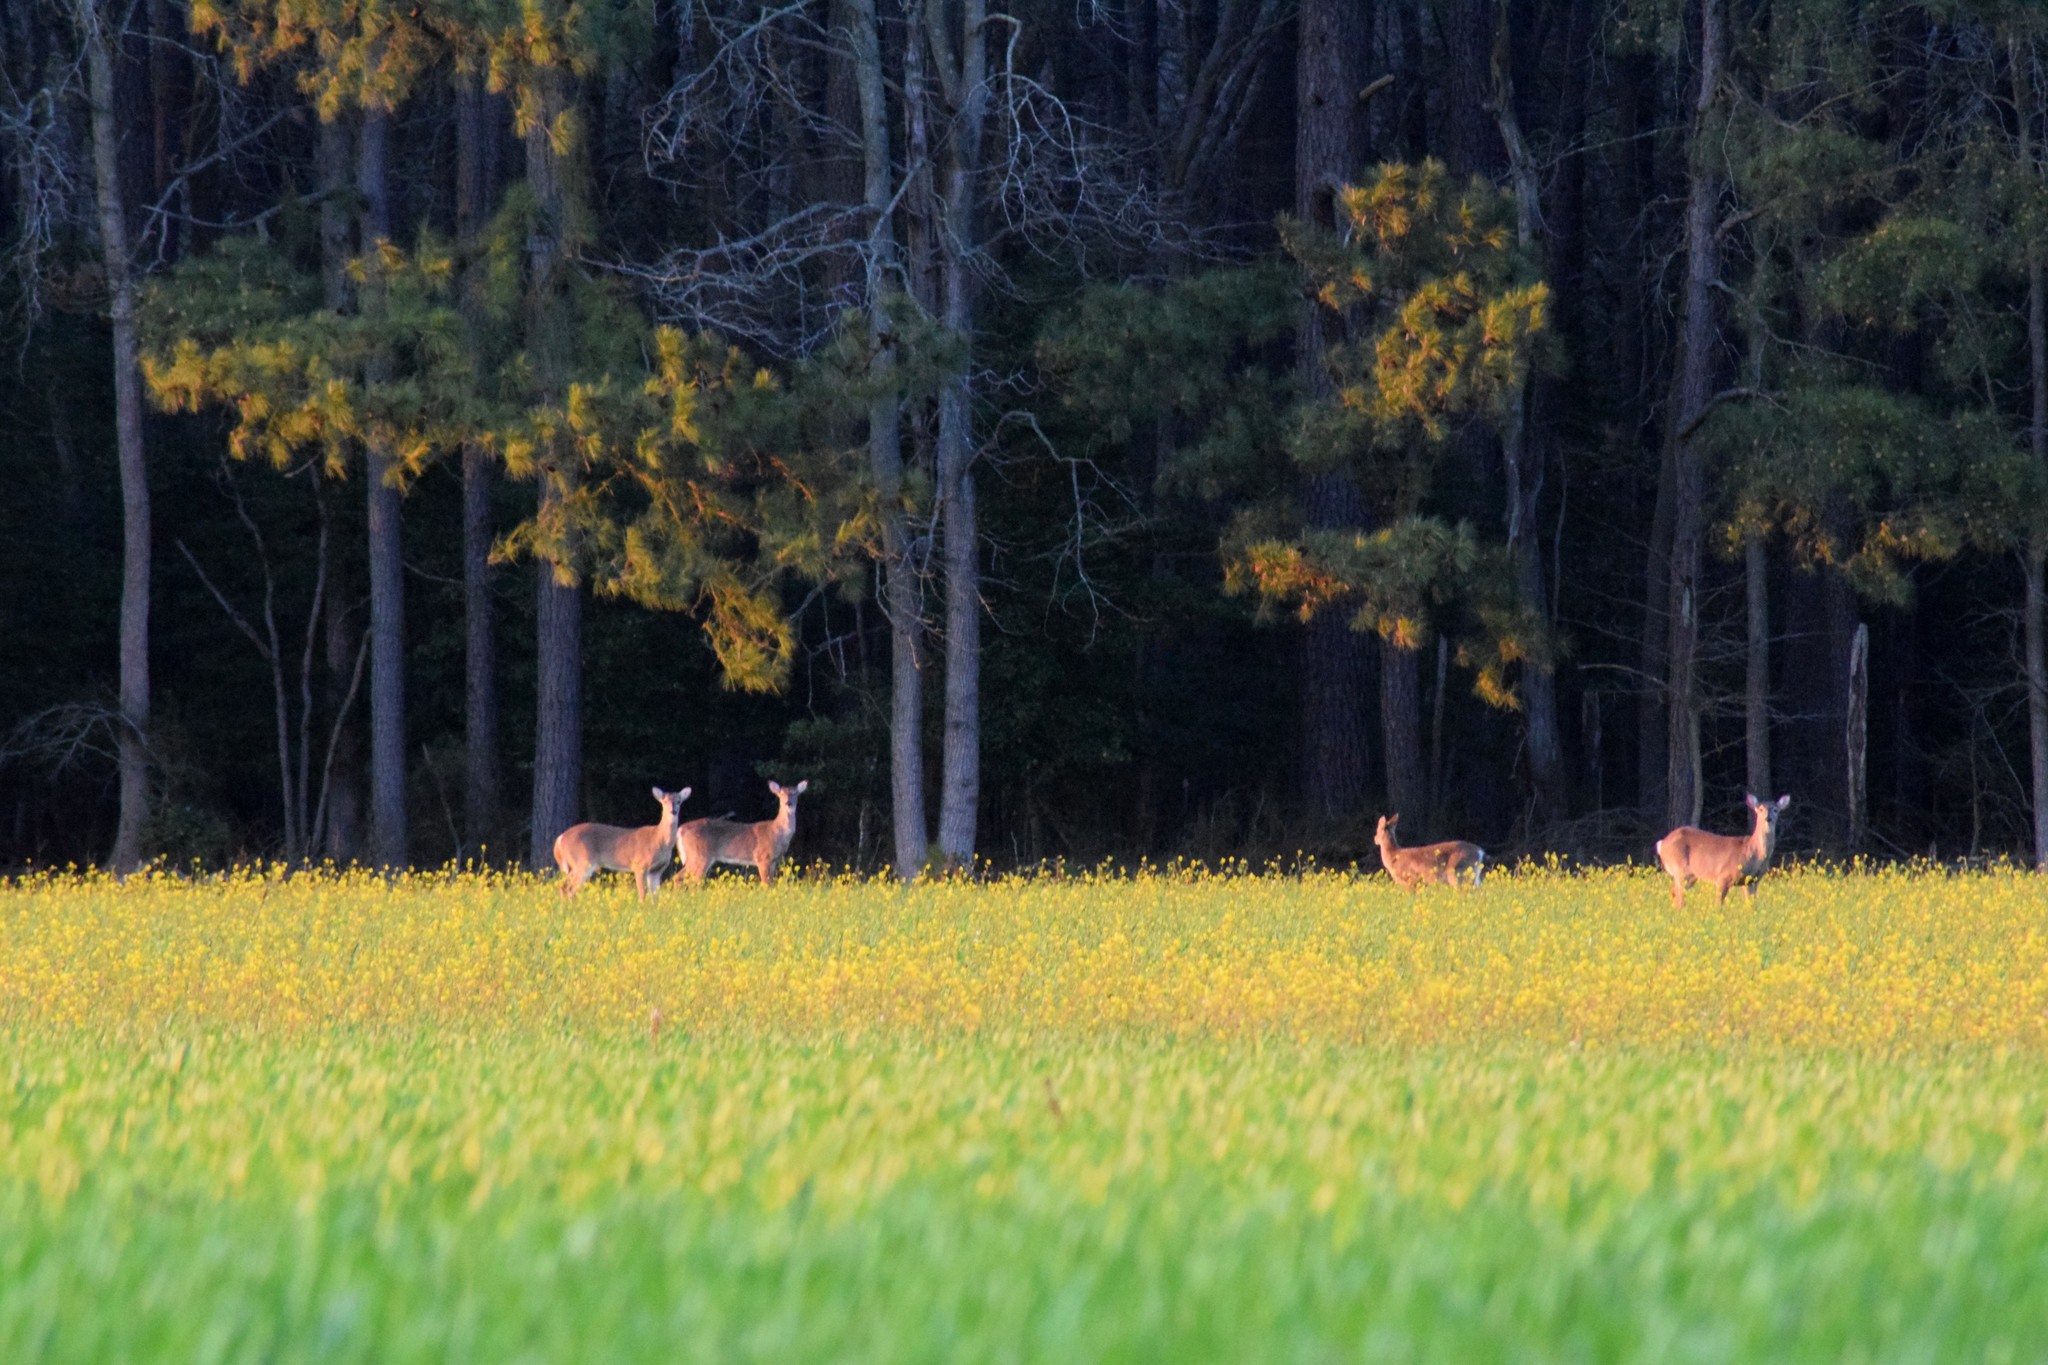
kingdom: Animalia
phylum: Chordata
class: Mammalia
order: Artiodactyla
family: Cervidae
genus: Odocoileus
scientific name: Odocoileus virginianus
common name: White-tailed deer
